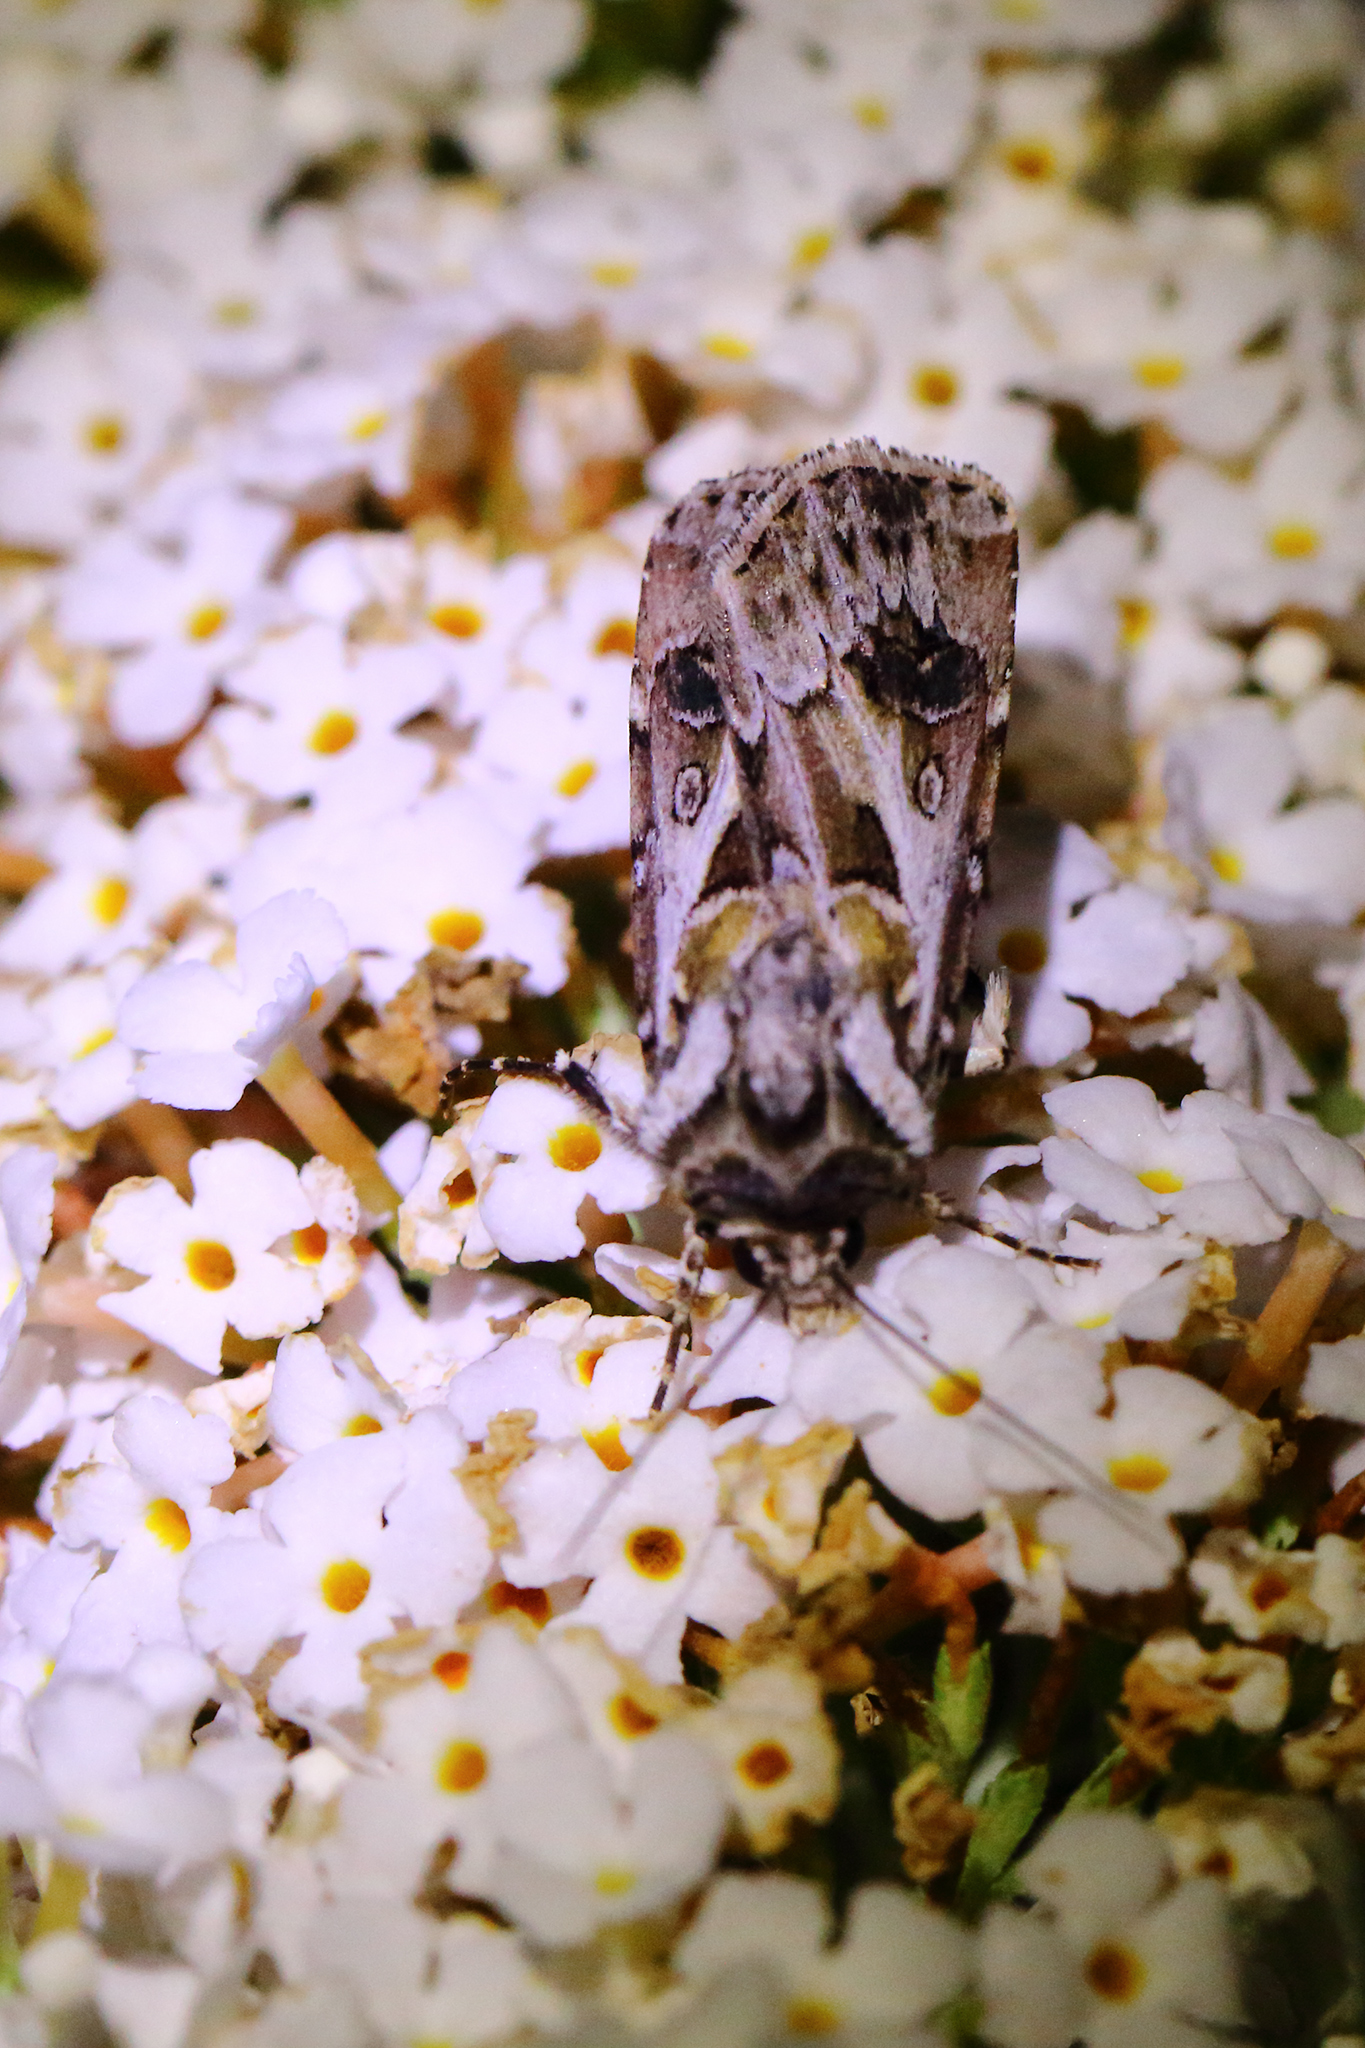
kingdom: Animalia
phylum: Arthropoda
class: Insecta
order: Lepidoptera
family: Noctuidae
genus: Agrotis
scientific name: Agrotis vestigialis
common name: Archer's dart
